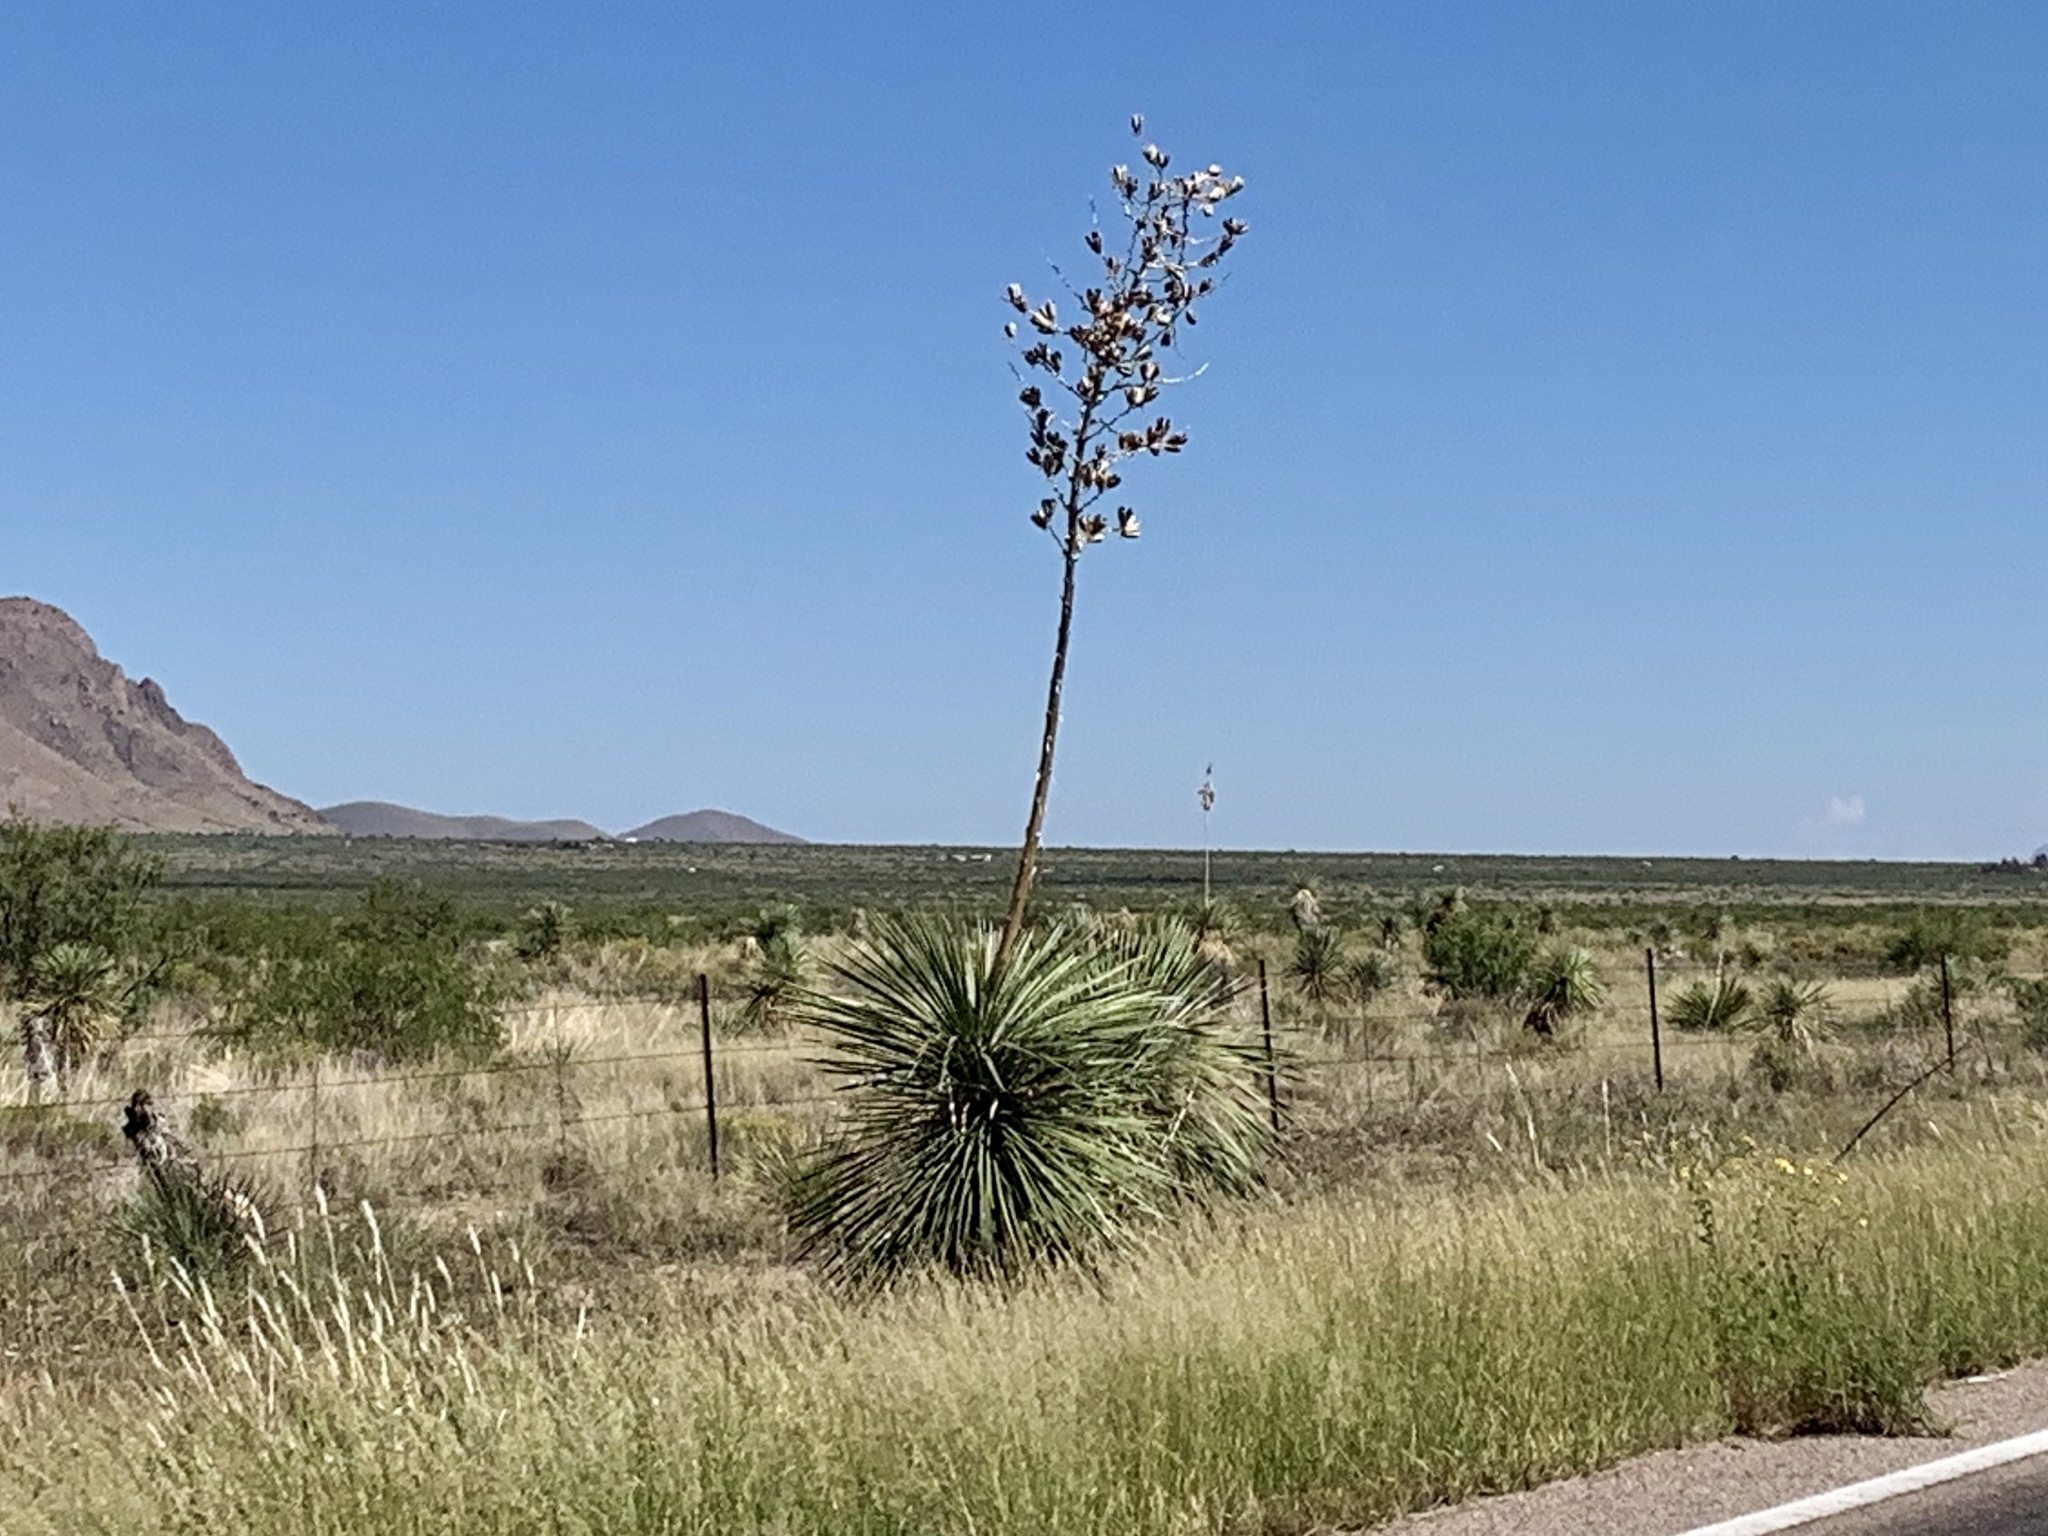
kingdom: Plantae
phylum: Tracheophyta
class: Liliopsida
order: Asparagales
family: Asparagaceae
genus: Yucca
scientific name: Yucca elata
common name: Palmella
